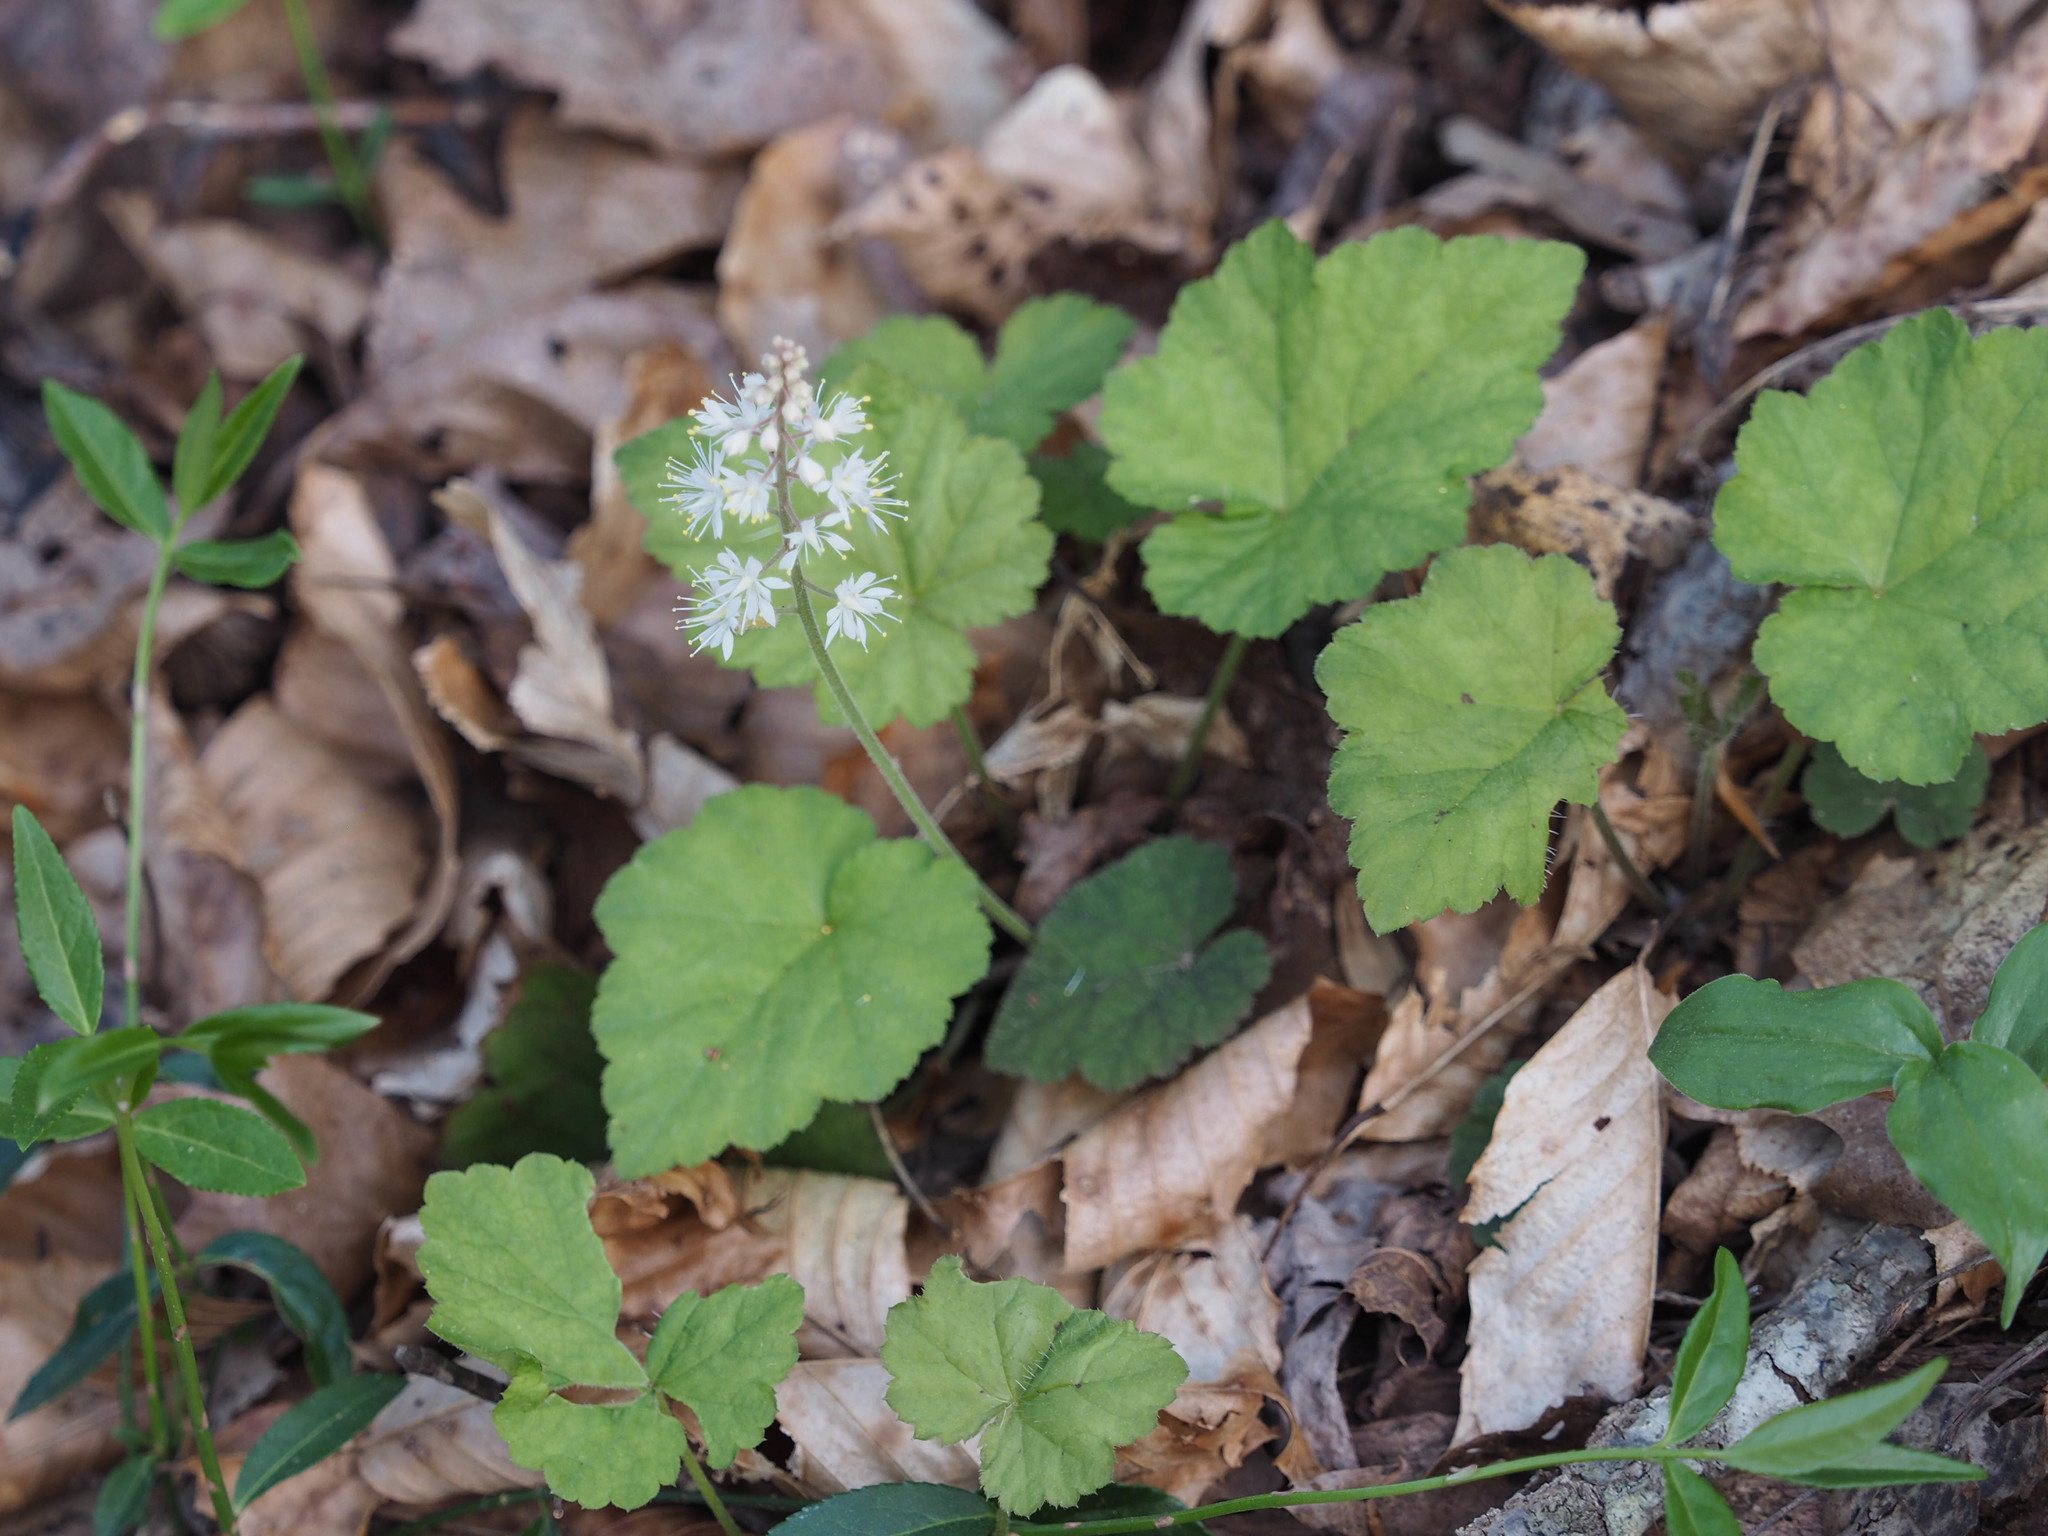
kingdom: Plantae
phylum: Tracheophyta
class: Magnoliopsida
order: Saxifragales
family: Saxifragaceae
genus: Tiarella
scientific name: Tiarella stolonifera
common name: Stoloniferous foamflower
